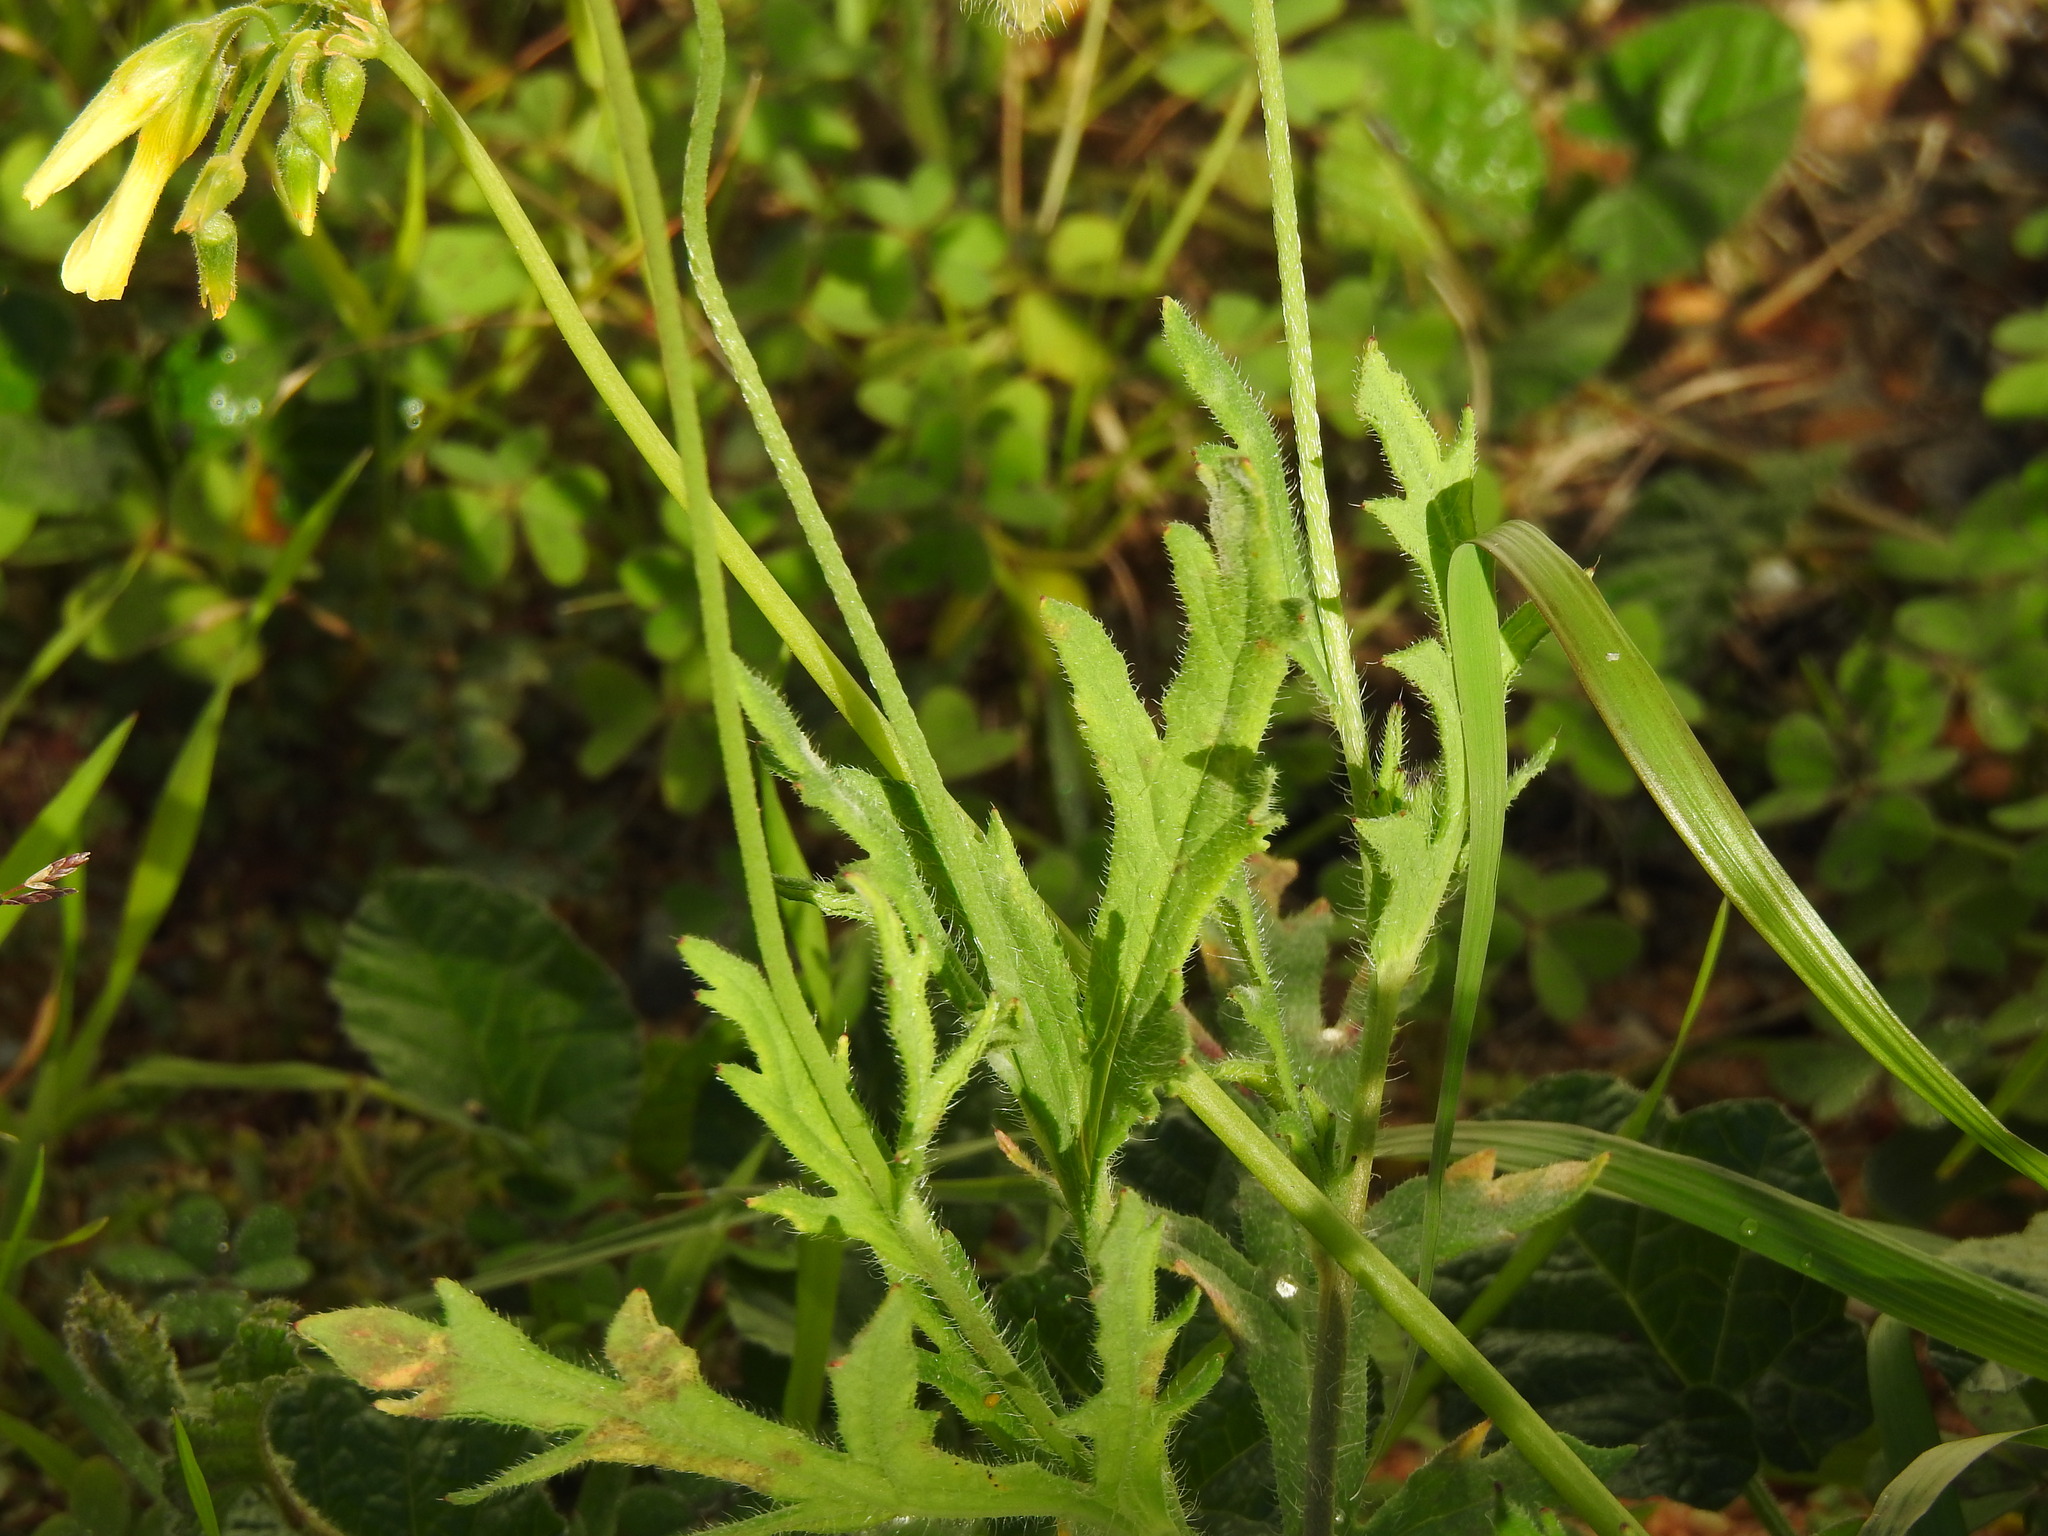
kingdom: Plantae
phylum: Tracheophyta
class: Magnoliopsida
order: Ranunculales
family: Papaveraceae
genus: Papaver
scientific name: Papaver dubium
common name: Long-headed poppy
